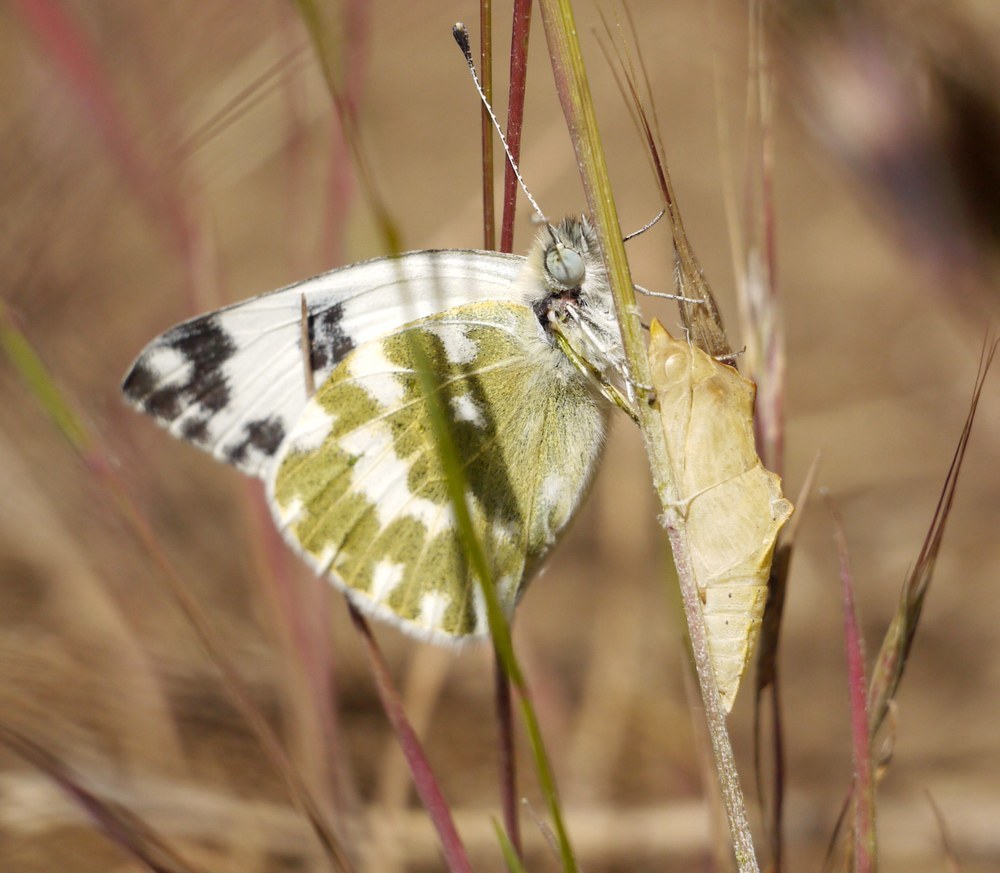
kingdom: Animalia
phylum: Arthropoda
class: Insecta
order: Lepidoptera
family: Pieridae
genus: Pontia
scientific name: Pontia edusa
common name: Eastern bath white
